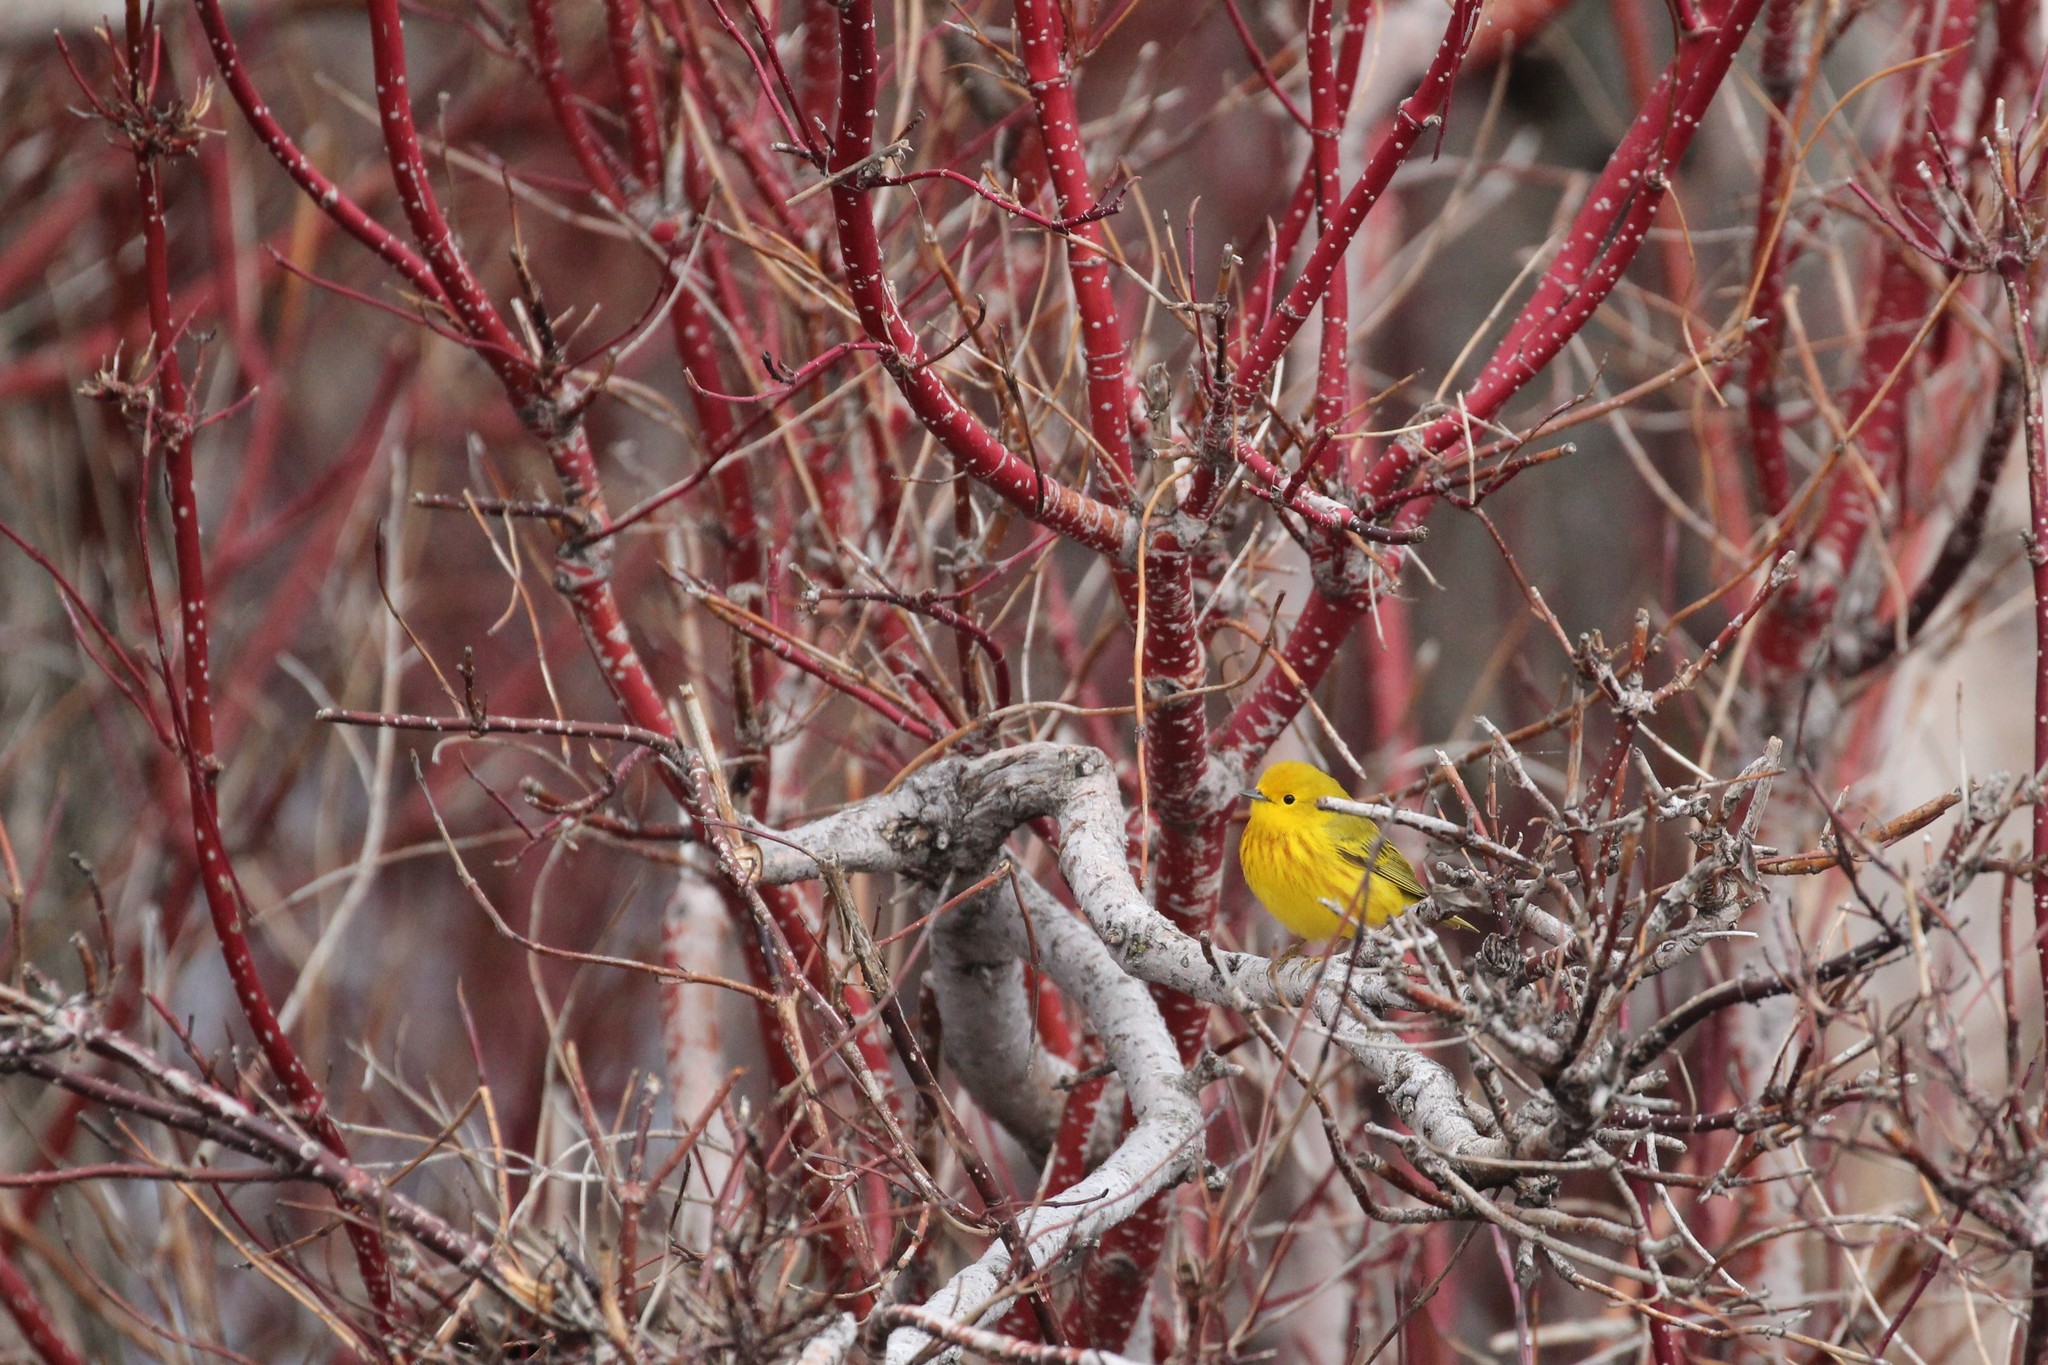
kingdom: Animalia
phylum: Chordata
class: Aves
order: Passeriformes
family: Parulidae
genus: Setophaga
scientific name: Setophaga petechia
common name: Yellow warbler
